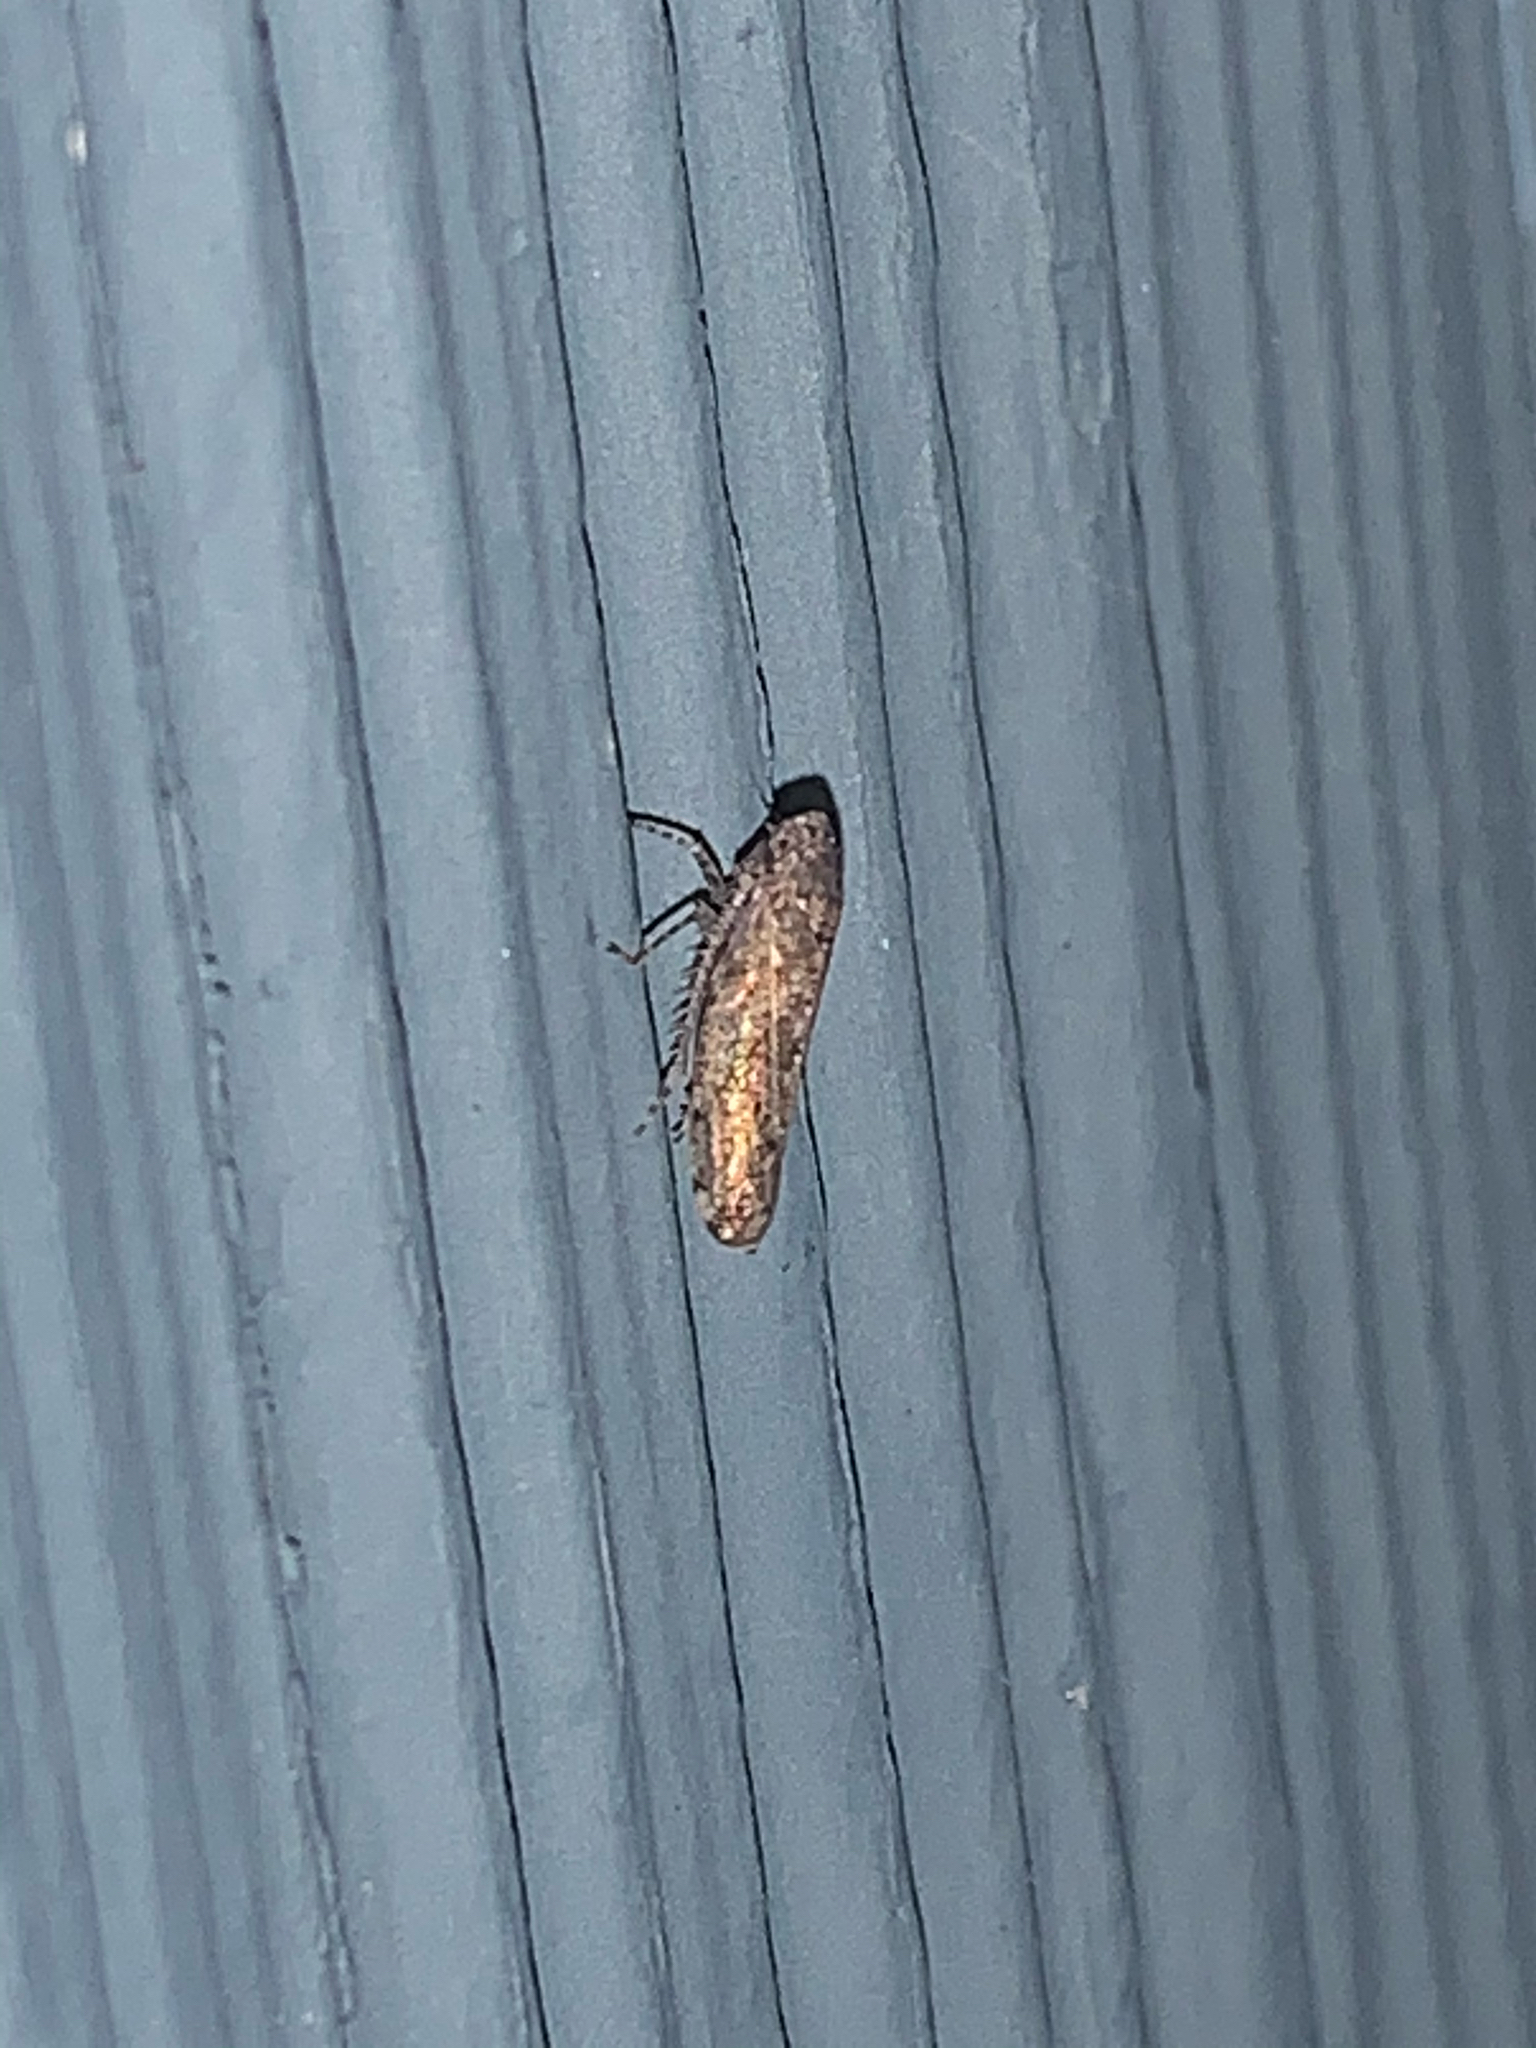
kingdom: Animalia
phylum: Arthropoda
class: Insecta
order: Hemiptera
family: Cicadellidae
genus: Paraphlepsius
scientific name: Paraphlepsius
